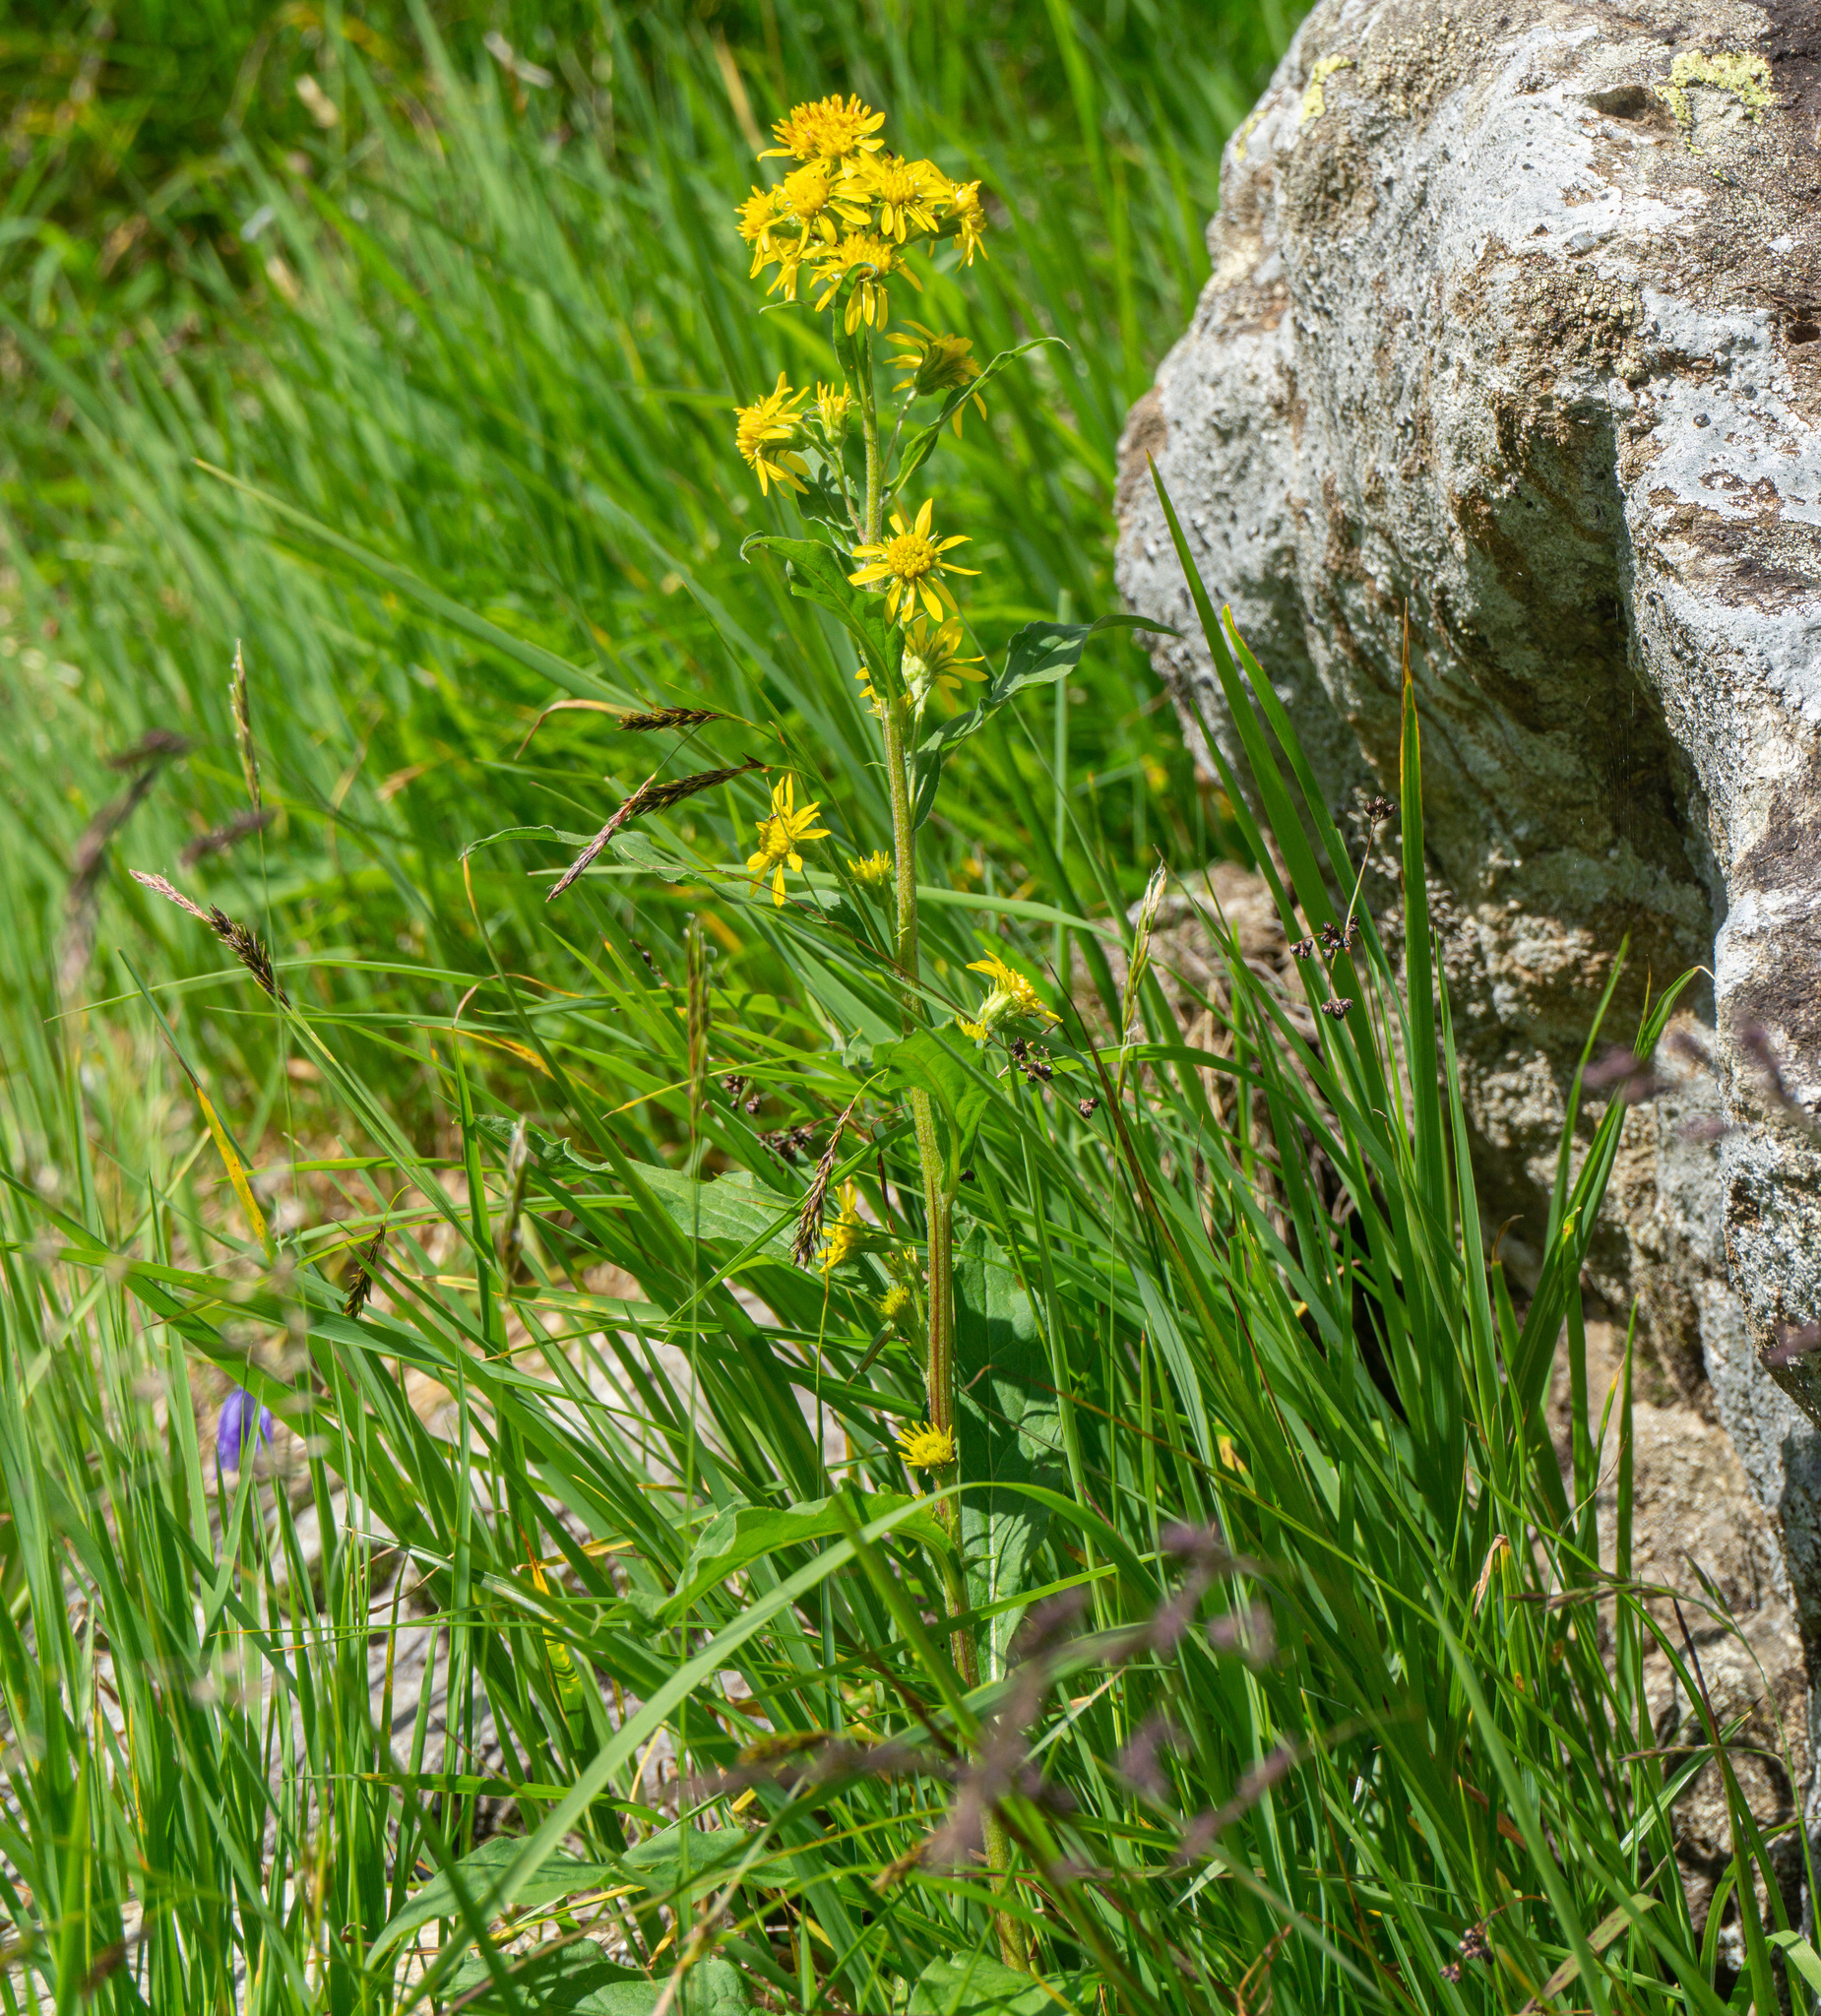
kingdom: Plantae
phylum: Tracheophyta
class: Magnoliopsida
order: Asterales
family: Asteraceae
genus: Solidago
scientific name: Solidago virgaurea
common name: Goldenrod
